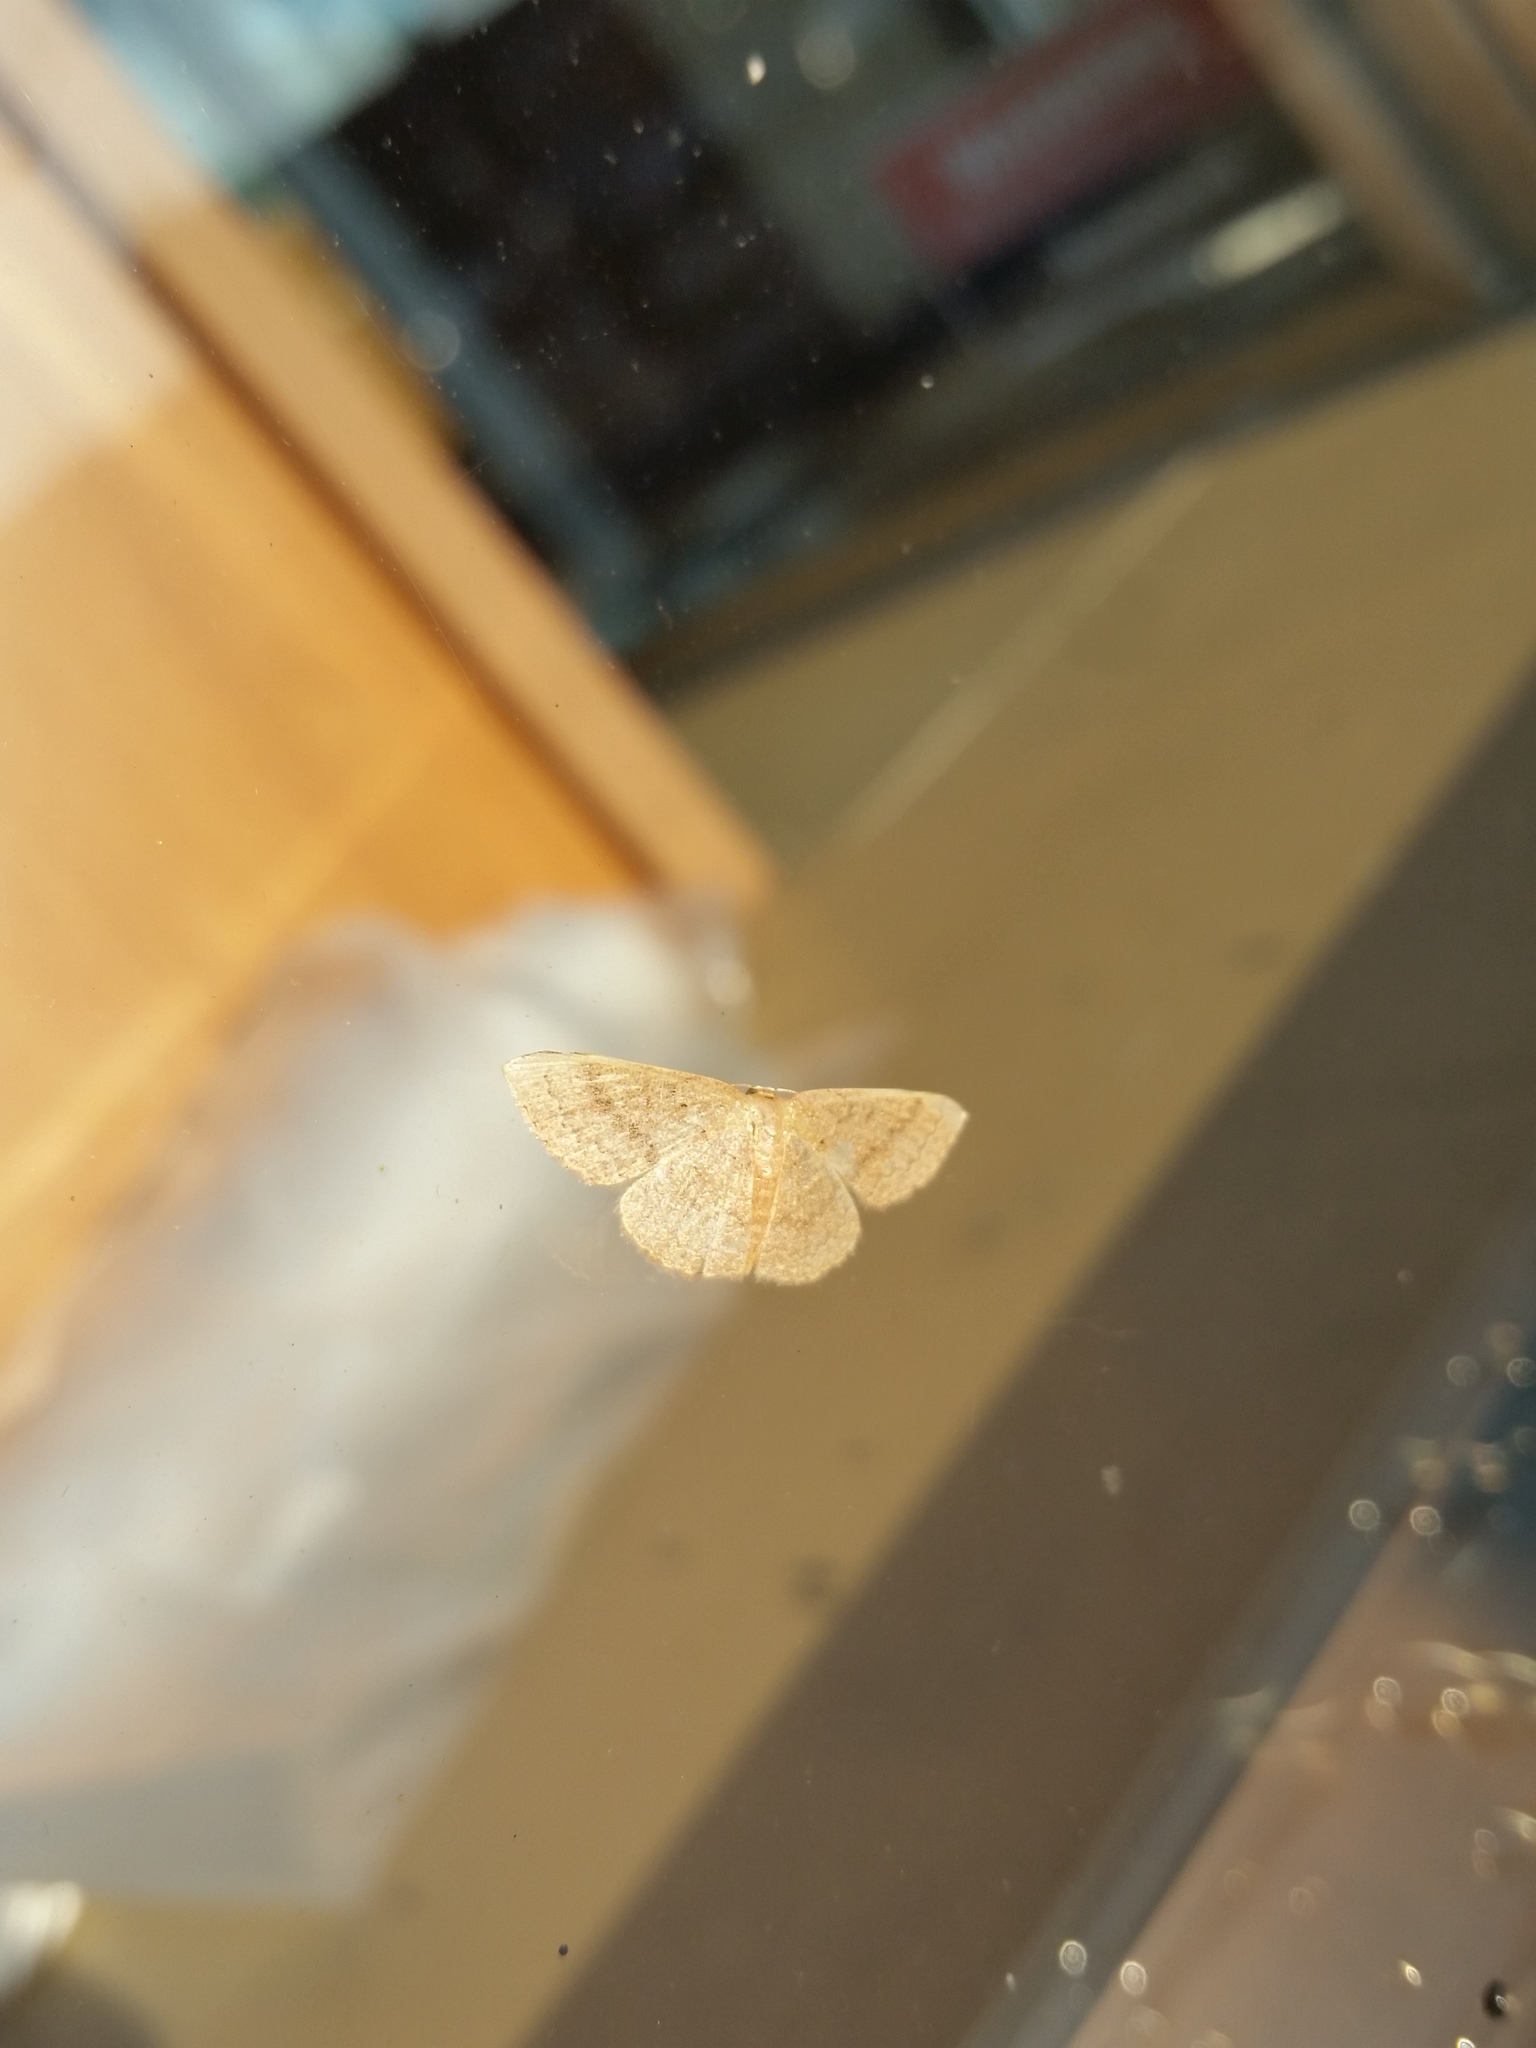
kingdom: Animalia
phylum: Arthropoda
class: Insecta
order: Lepidoptera
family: Geometridae
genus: Pleuroprucha
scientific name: Pleuroprucha insulsaria
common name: Common tan wave
